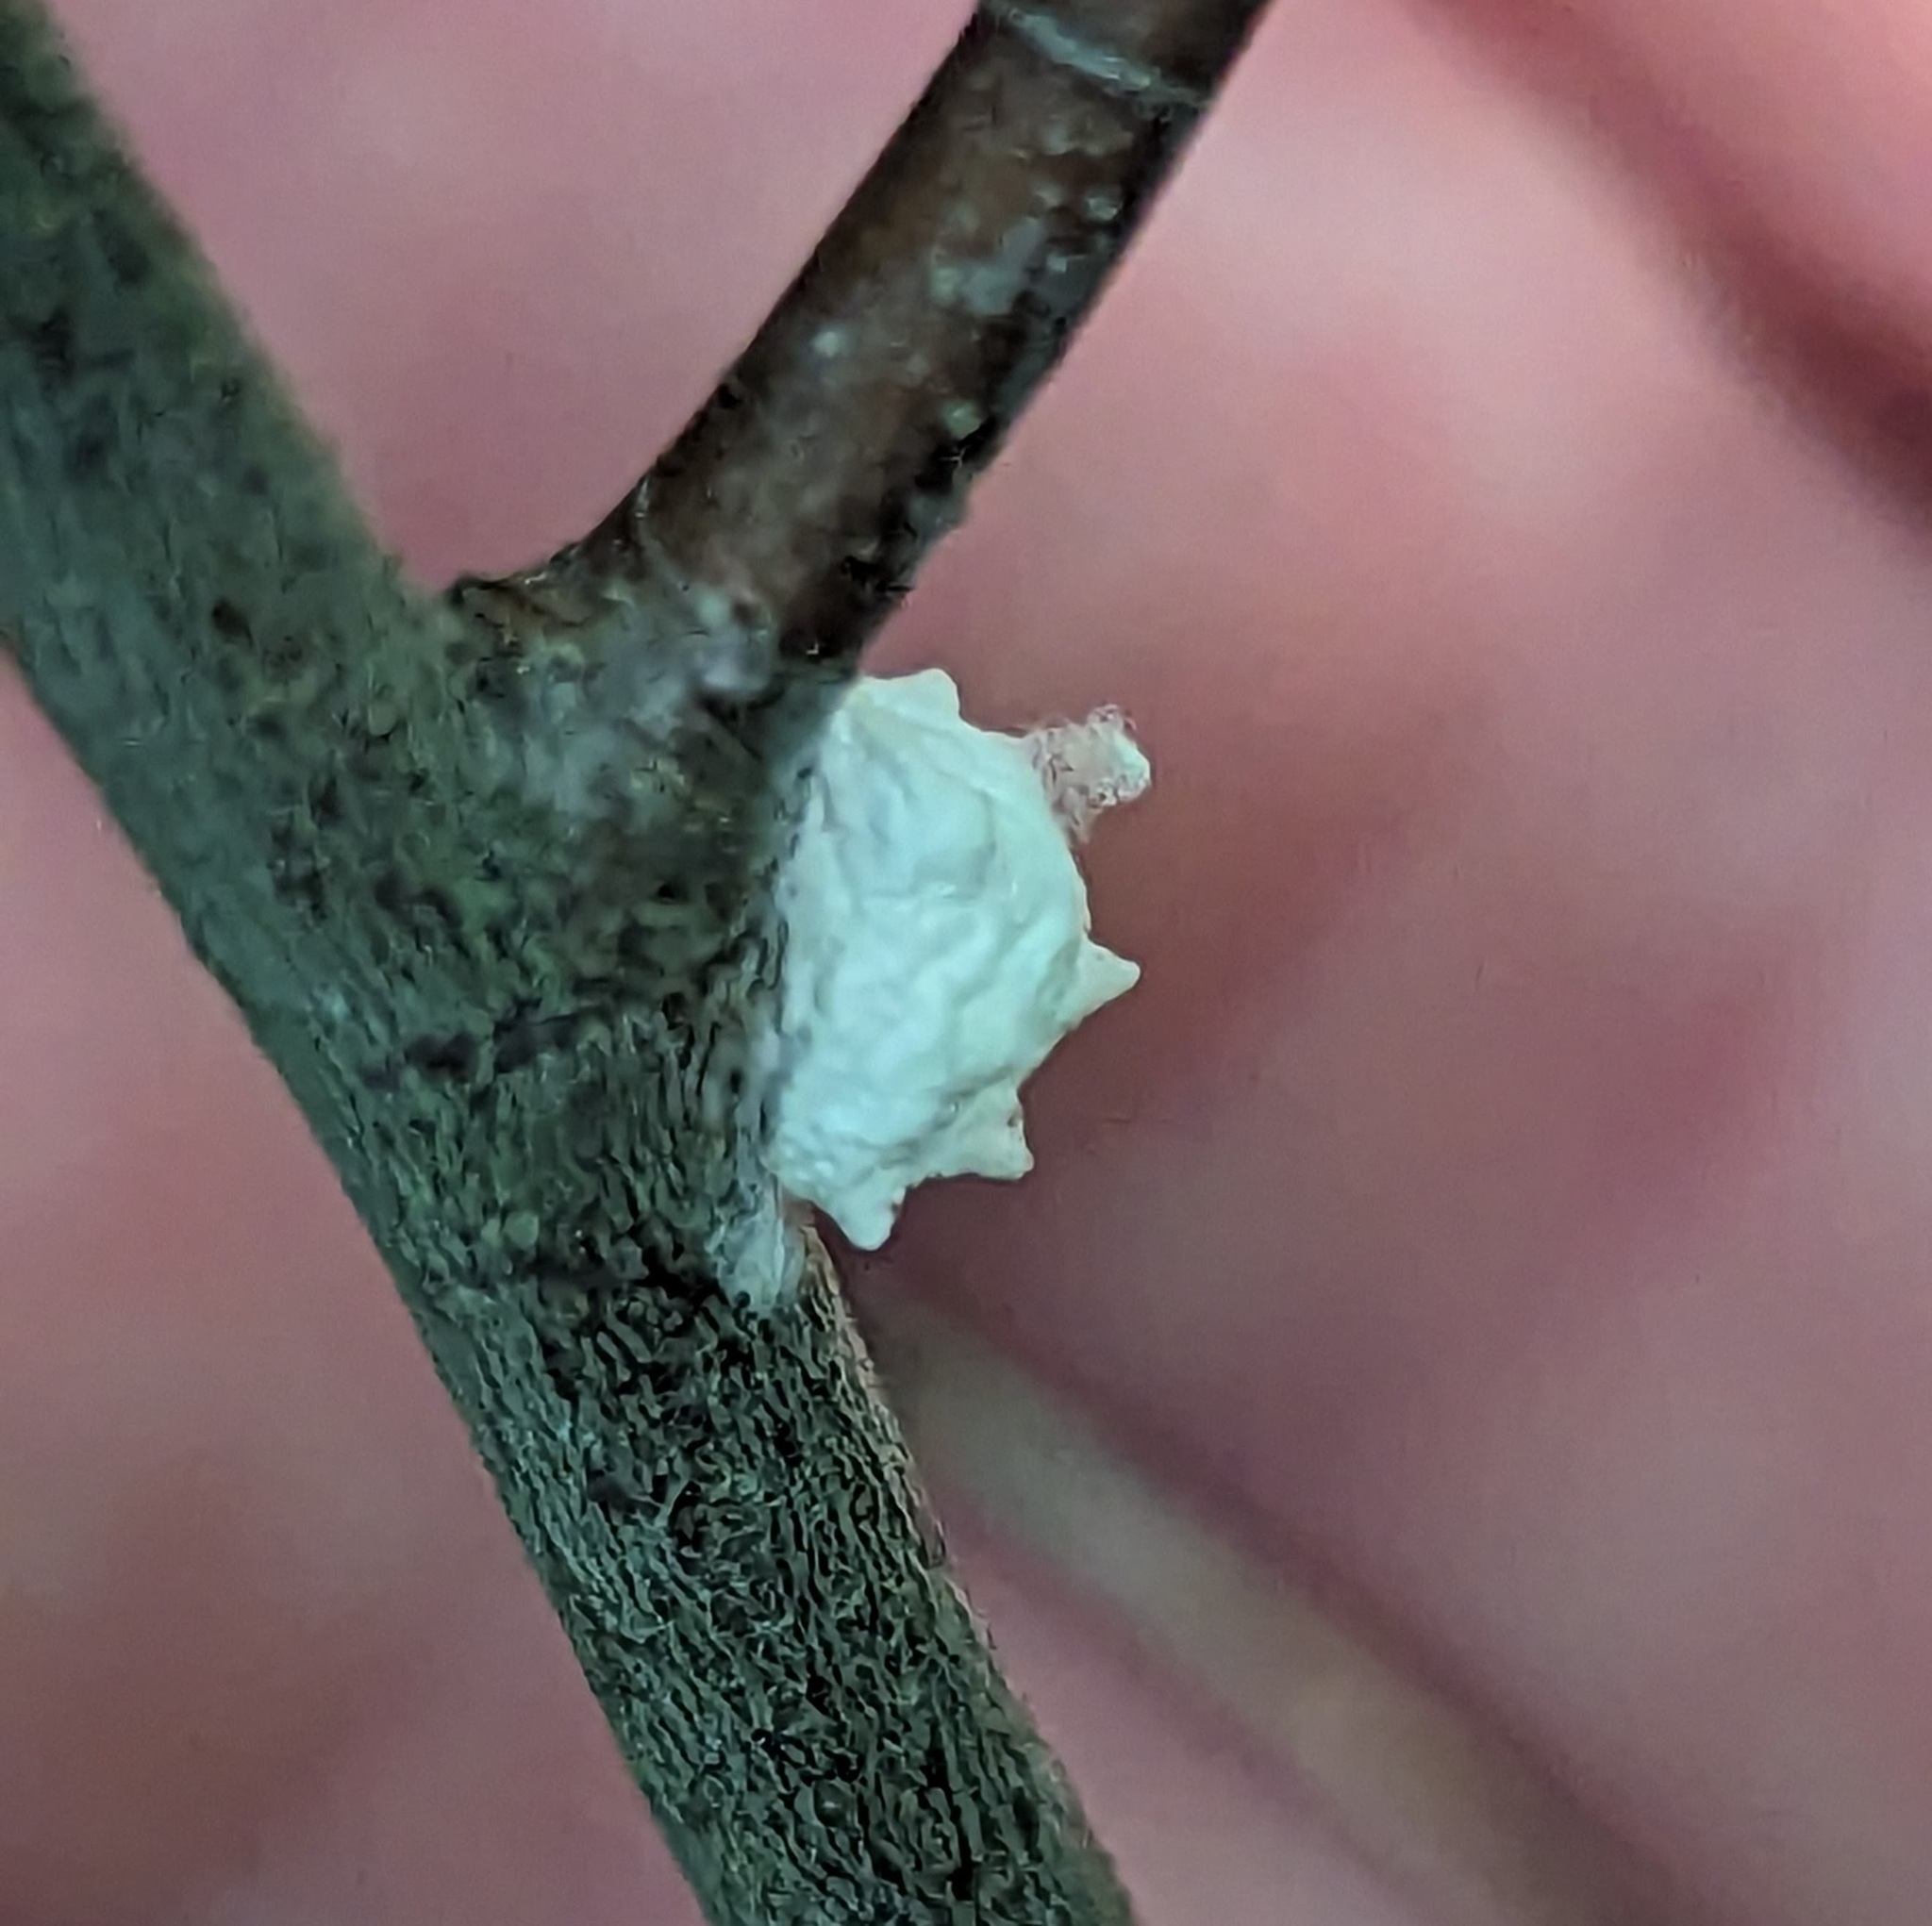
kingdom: Animalia
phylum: Arthropoda
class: Insecta
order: Lepidoptera
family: Epipyropidae
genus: Fulgoraecia
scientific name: Fulgoraecia exigua
